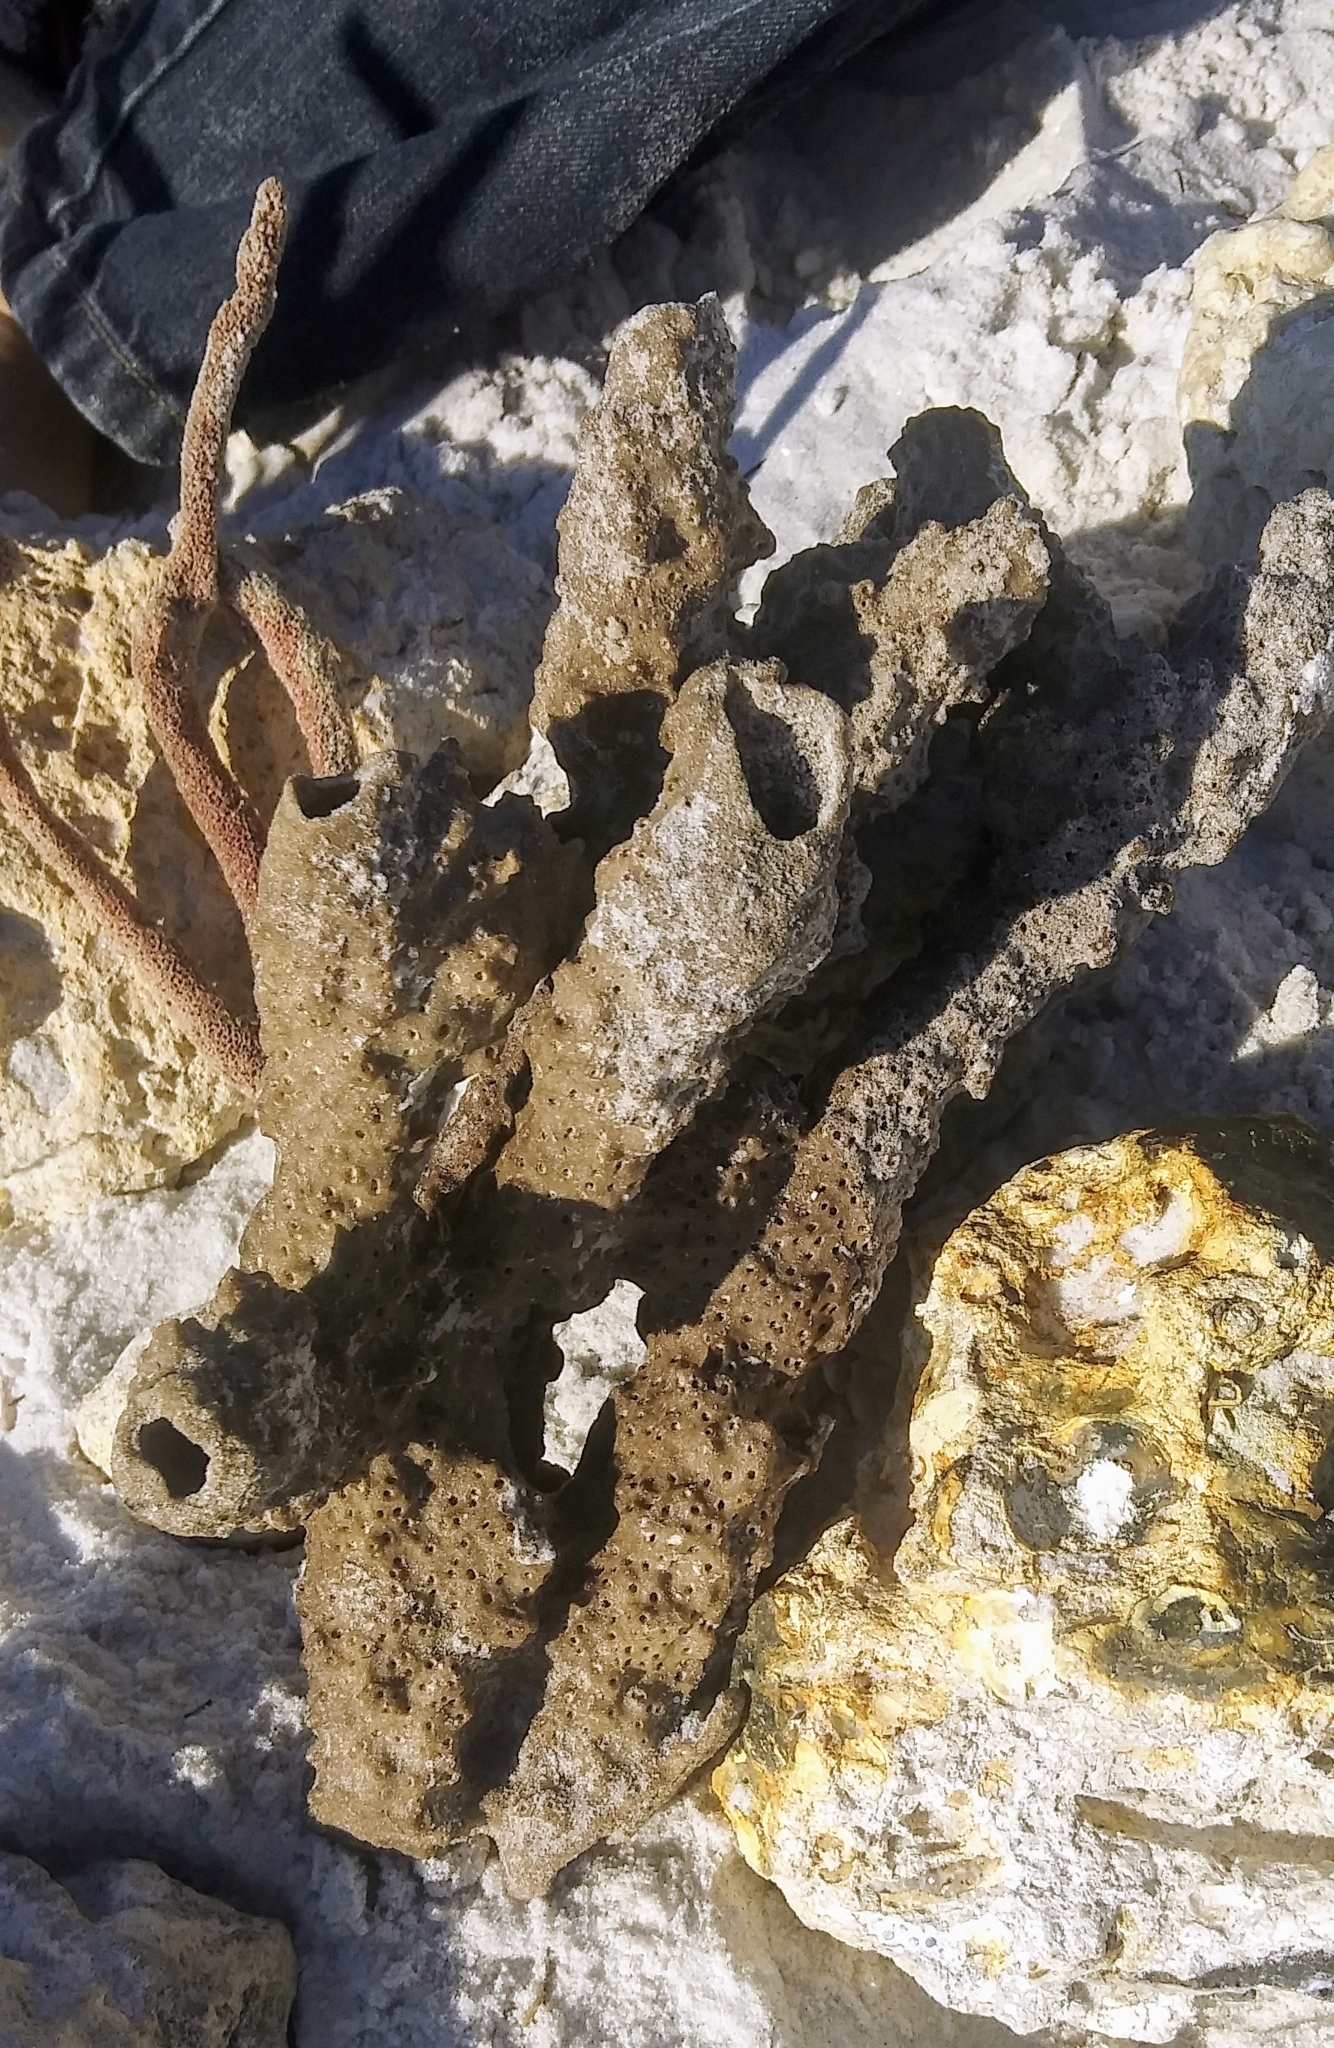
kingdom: Animalia
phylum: Porifera
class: Demospongiae
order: Haplosclerida
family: Callyspongiidae
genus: Callyspongia
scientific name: Callyspongia aculeata
